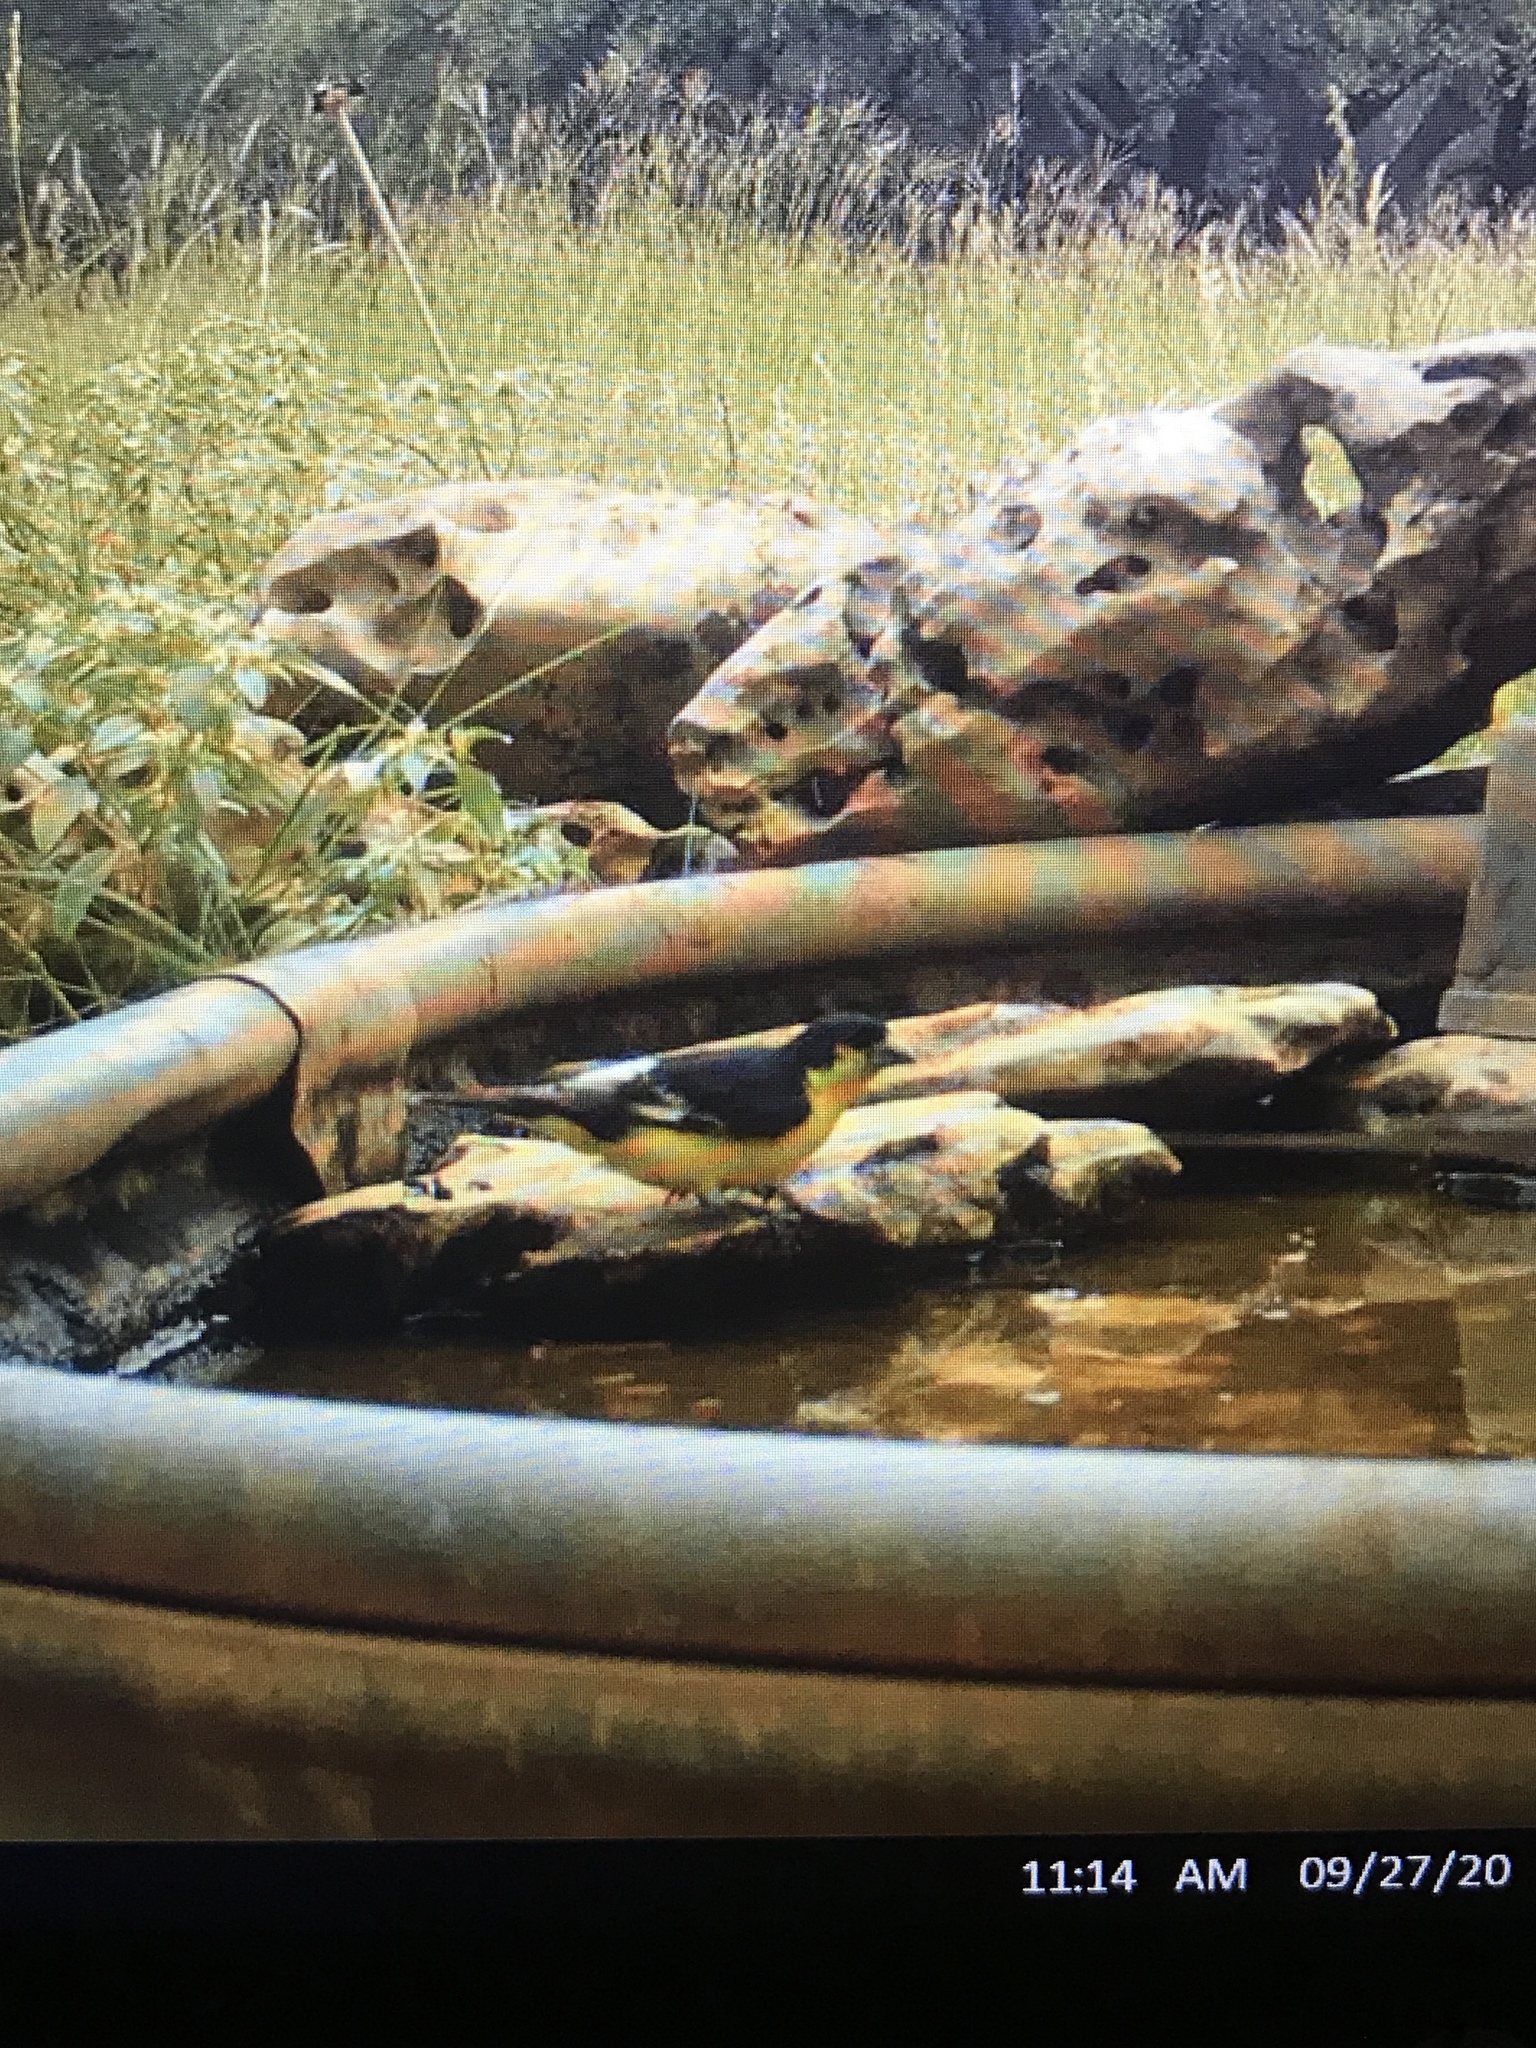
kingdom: Animalia
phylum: Chordata
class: Aves
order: Passeriformes
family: Fringillidae
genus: Spinus
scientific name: Spinus psaltria
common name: Lesser goldfinch
